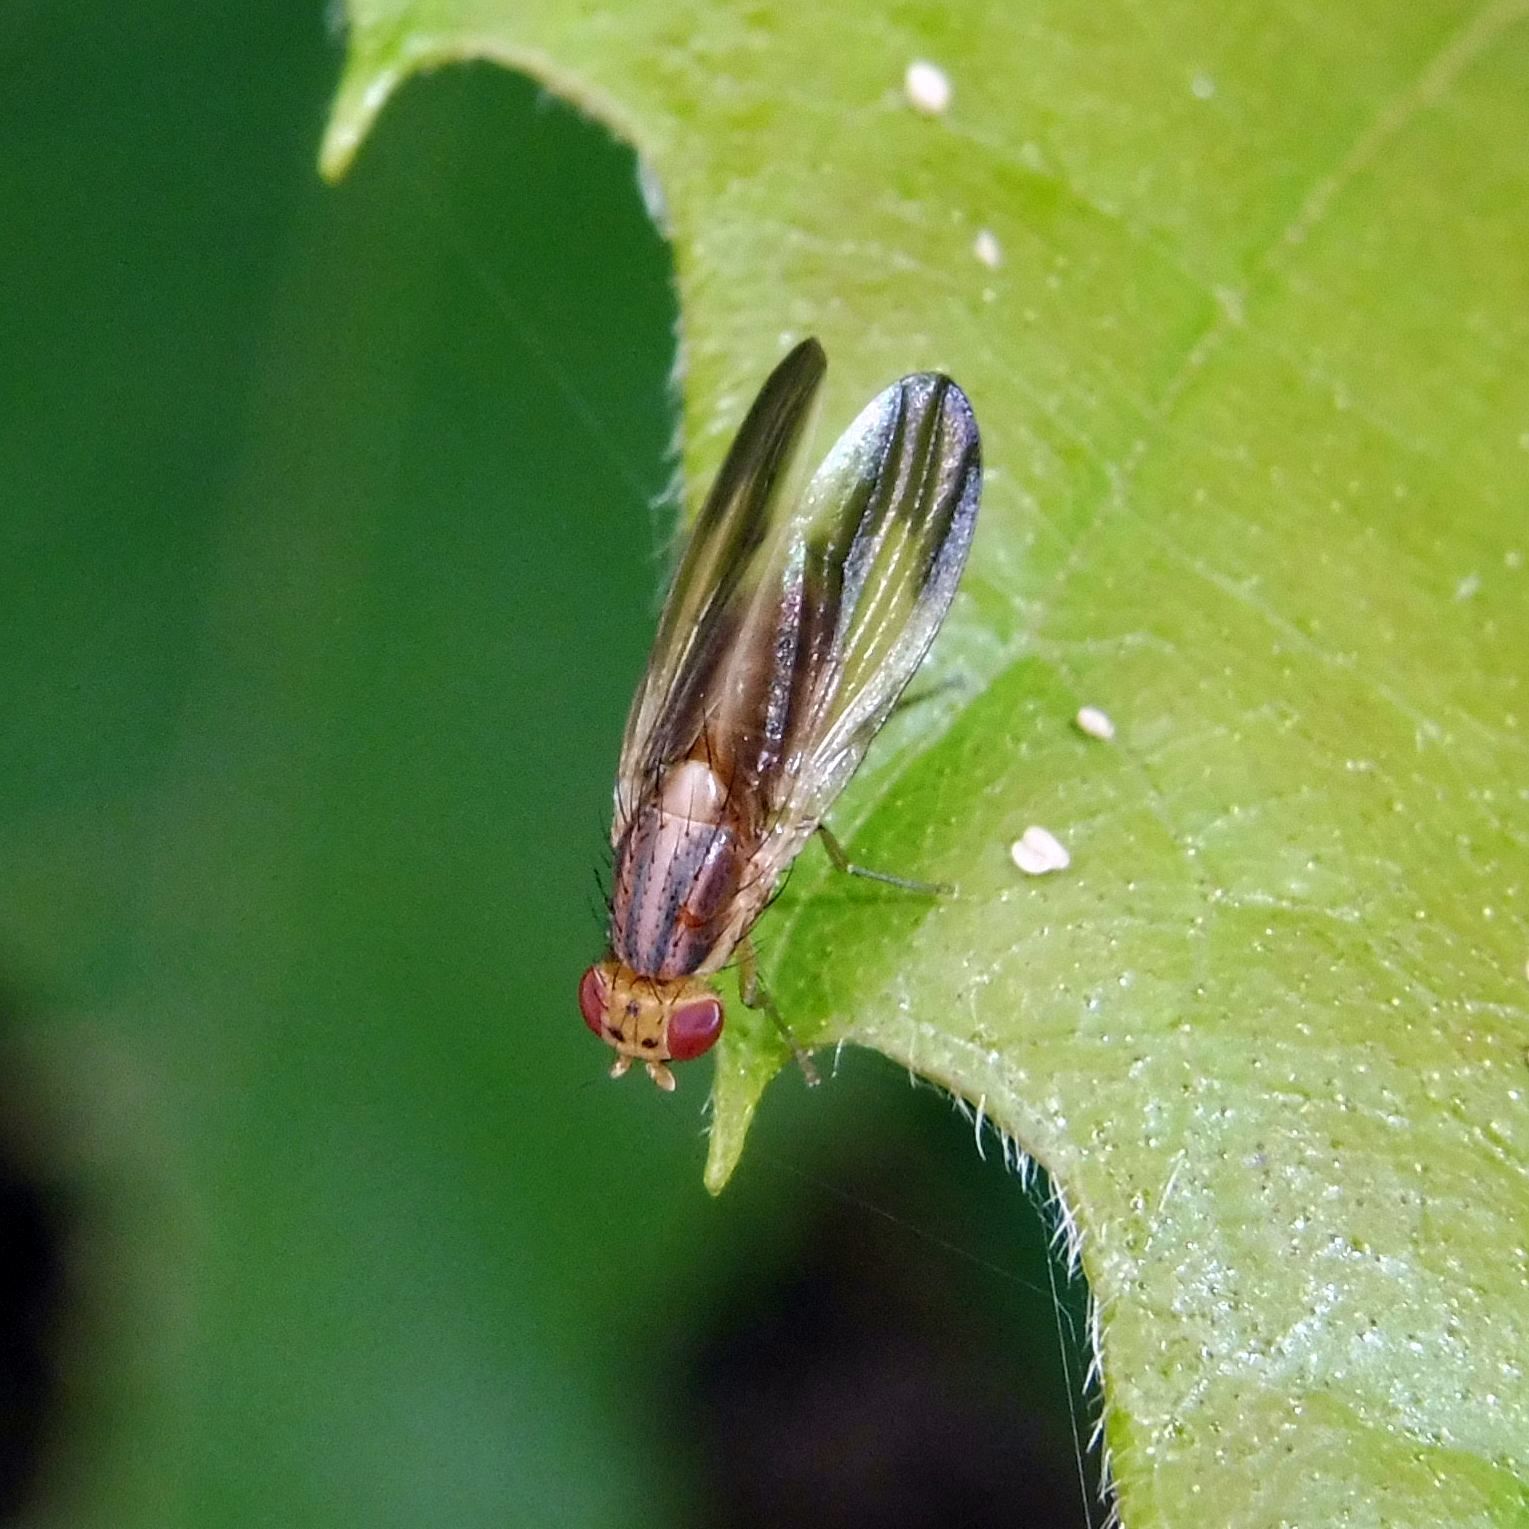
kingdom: Animalia
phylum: Arthropoda
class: Insecta
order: Diptera
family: Lauxaniidae
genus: Peplomyza
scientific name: Peplomyza litura
